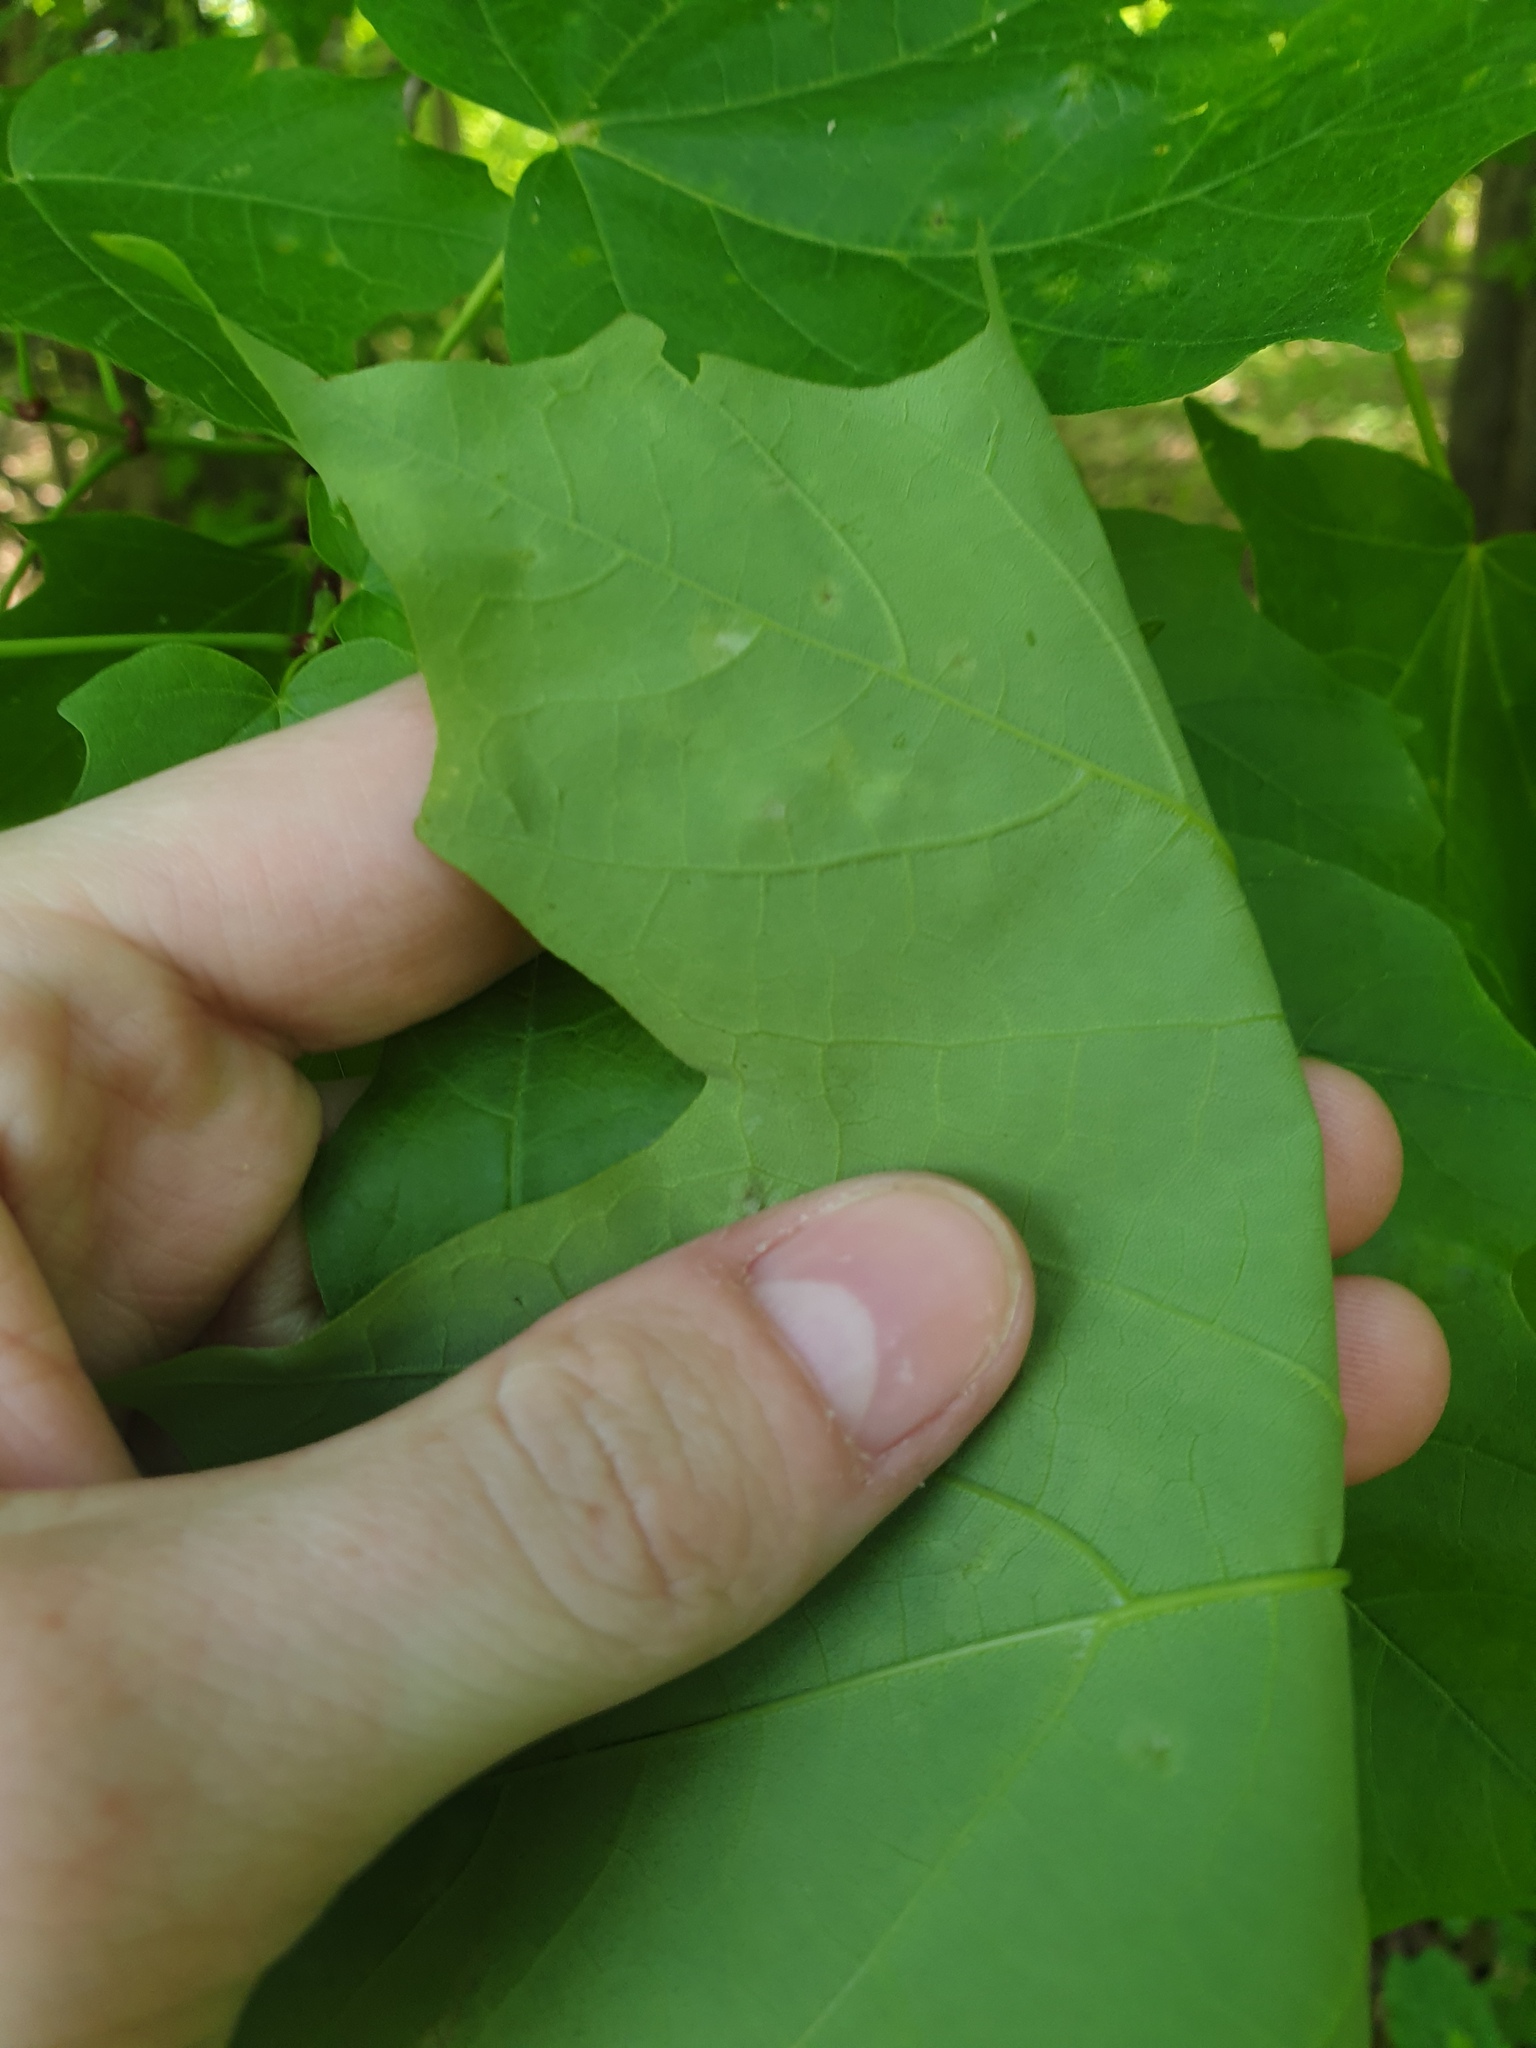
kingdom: Plantae
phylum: Tracheophyta
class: Magnoliopsida
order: Sapindales
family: Sapindaceae
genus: Acer
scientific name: Acer saccharum
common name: Sugar maple
